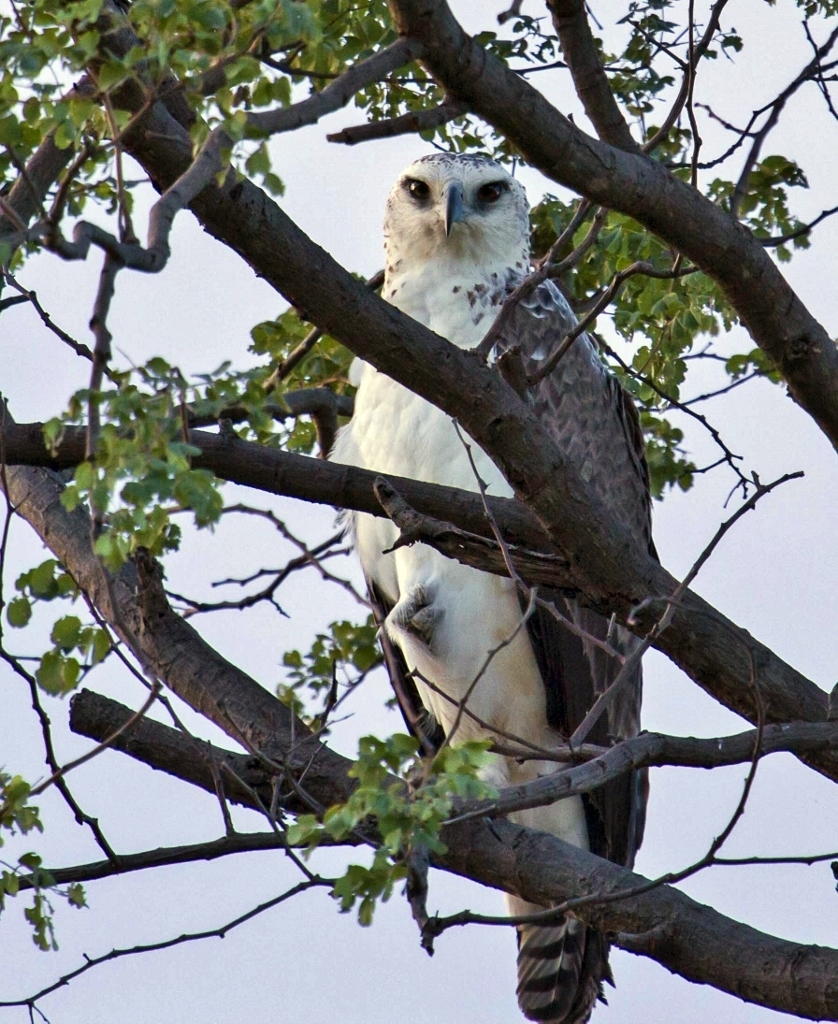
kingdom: Animalia
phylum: Chordata
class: Aves
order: Accipitriformes
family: Accipitridae
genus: Polemaetus
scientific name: Polemaetus bellicosus
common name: Martial eagle
